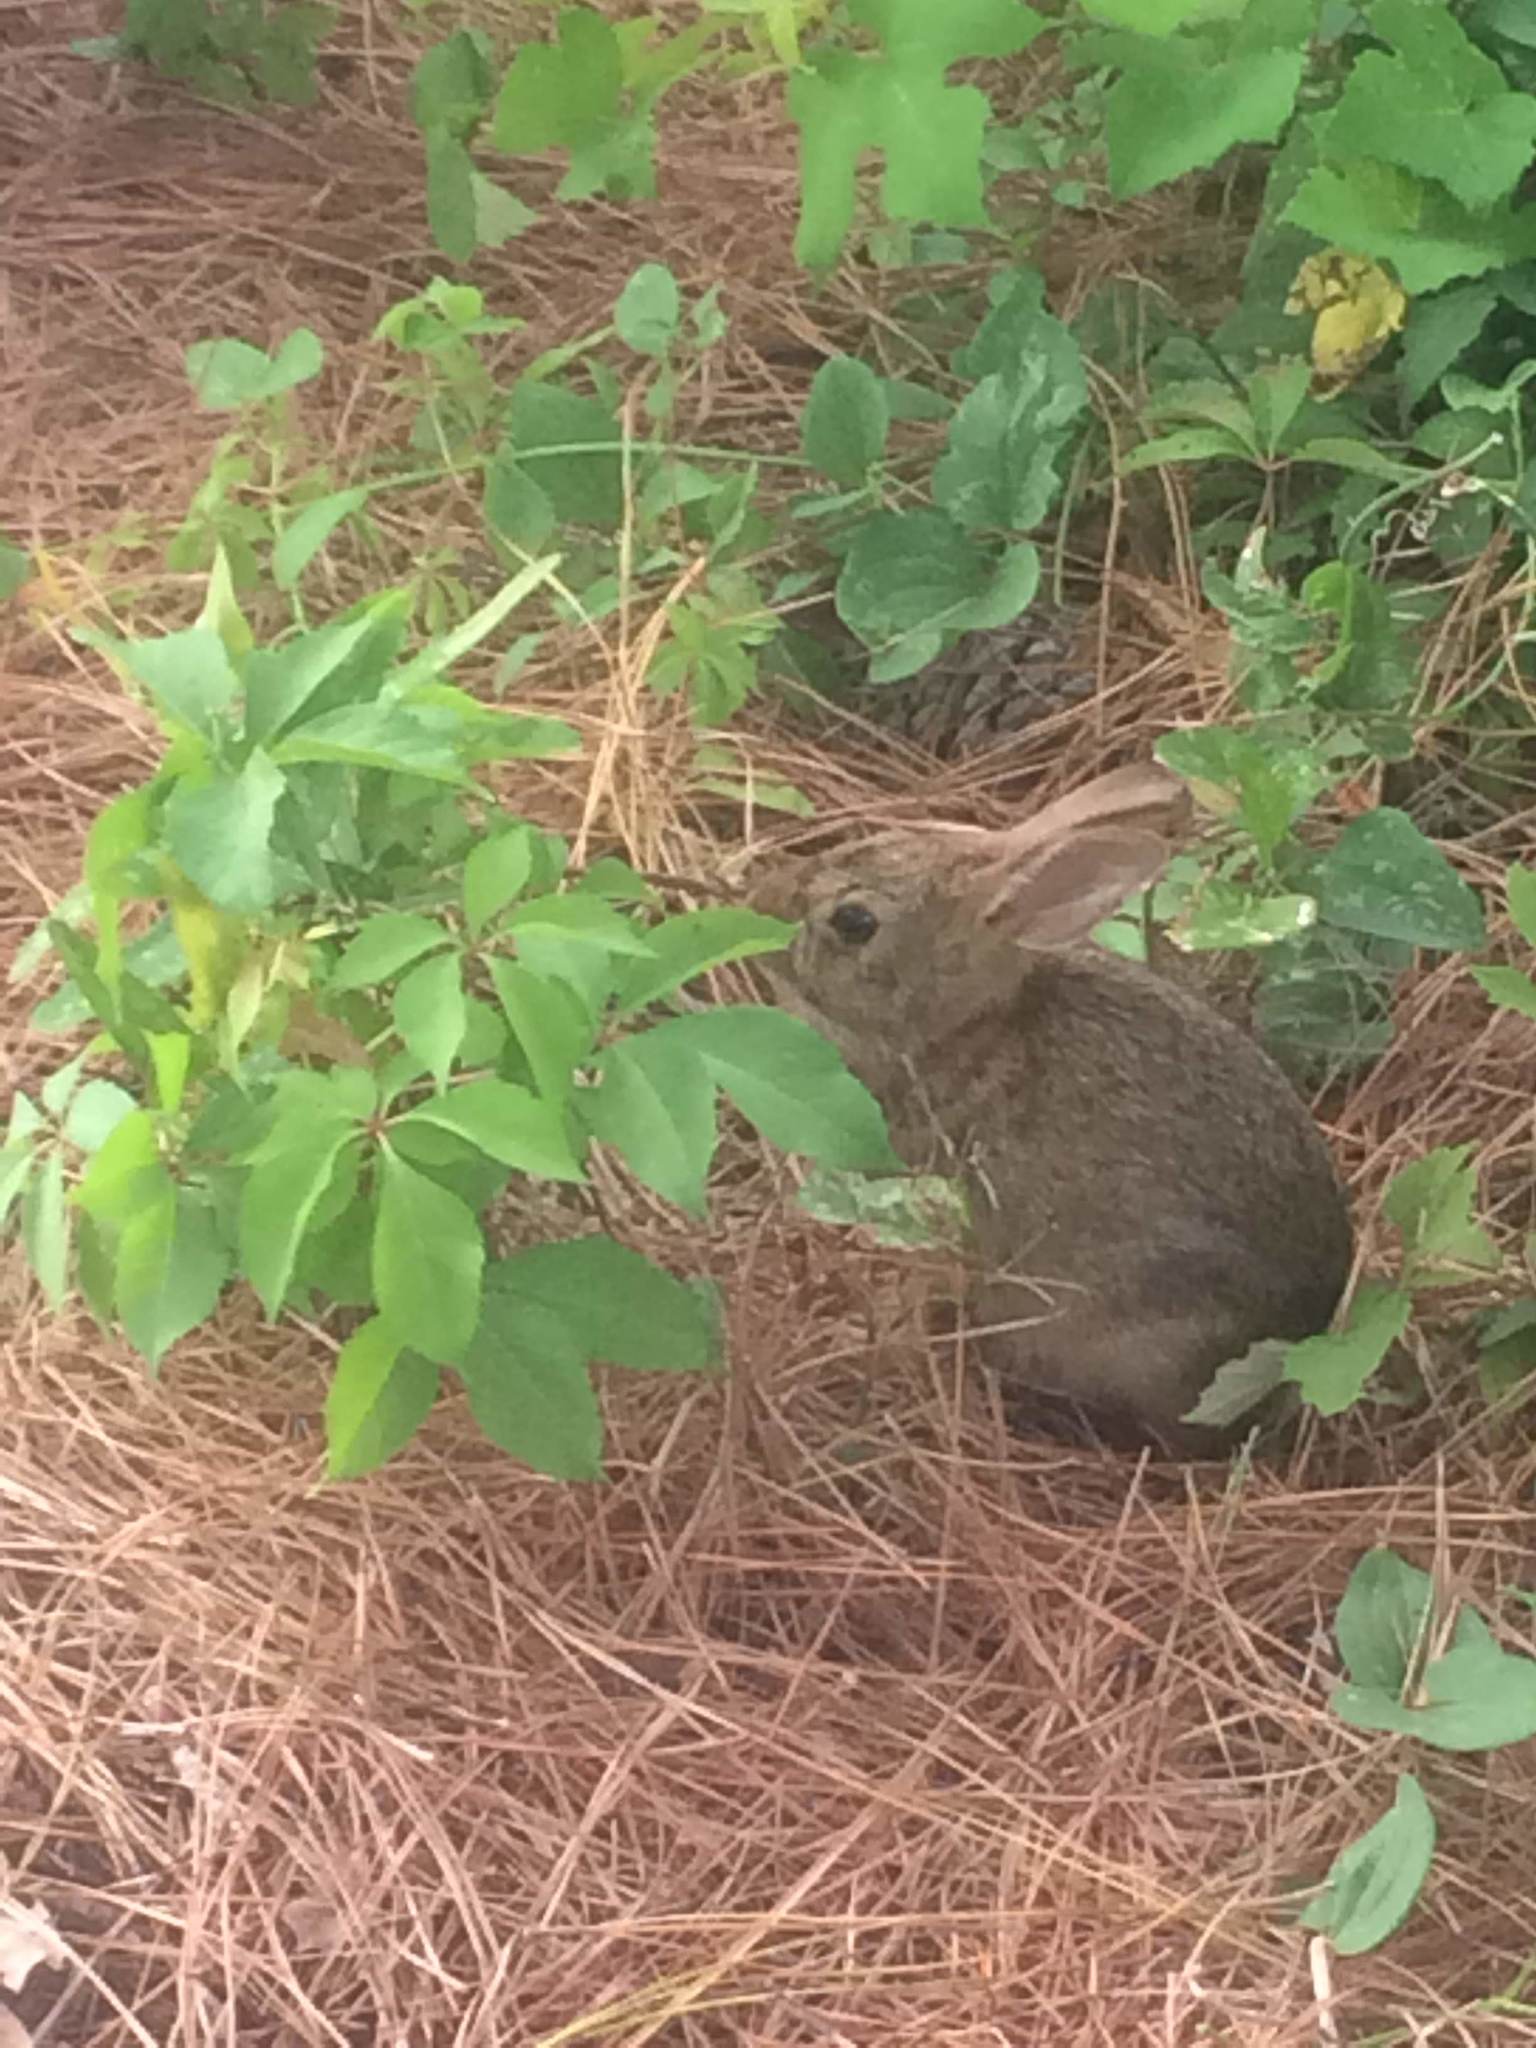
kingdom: Animalia
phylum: Chordata
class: Mammalia
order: Lagomorpha
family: Leporidae
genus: Sylvilagus
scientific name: Sylvilagus floridanus
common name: Eastern cottontail
